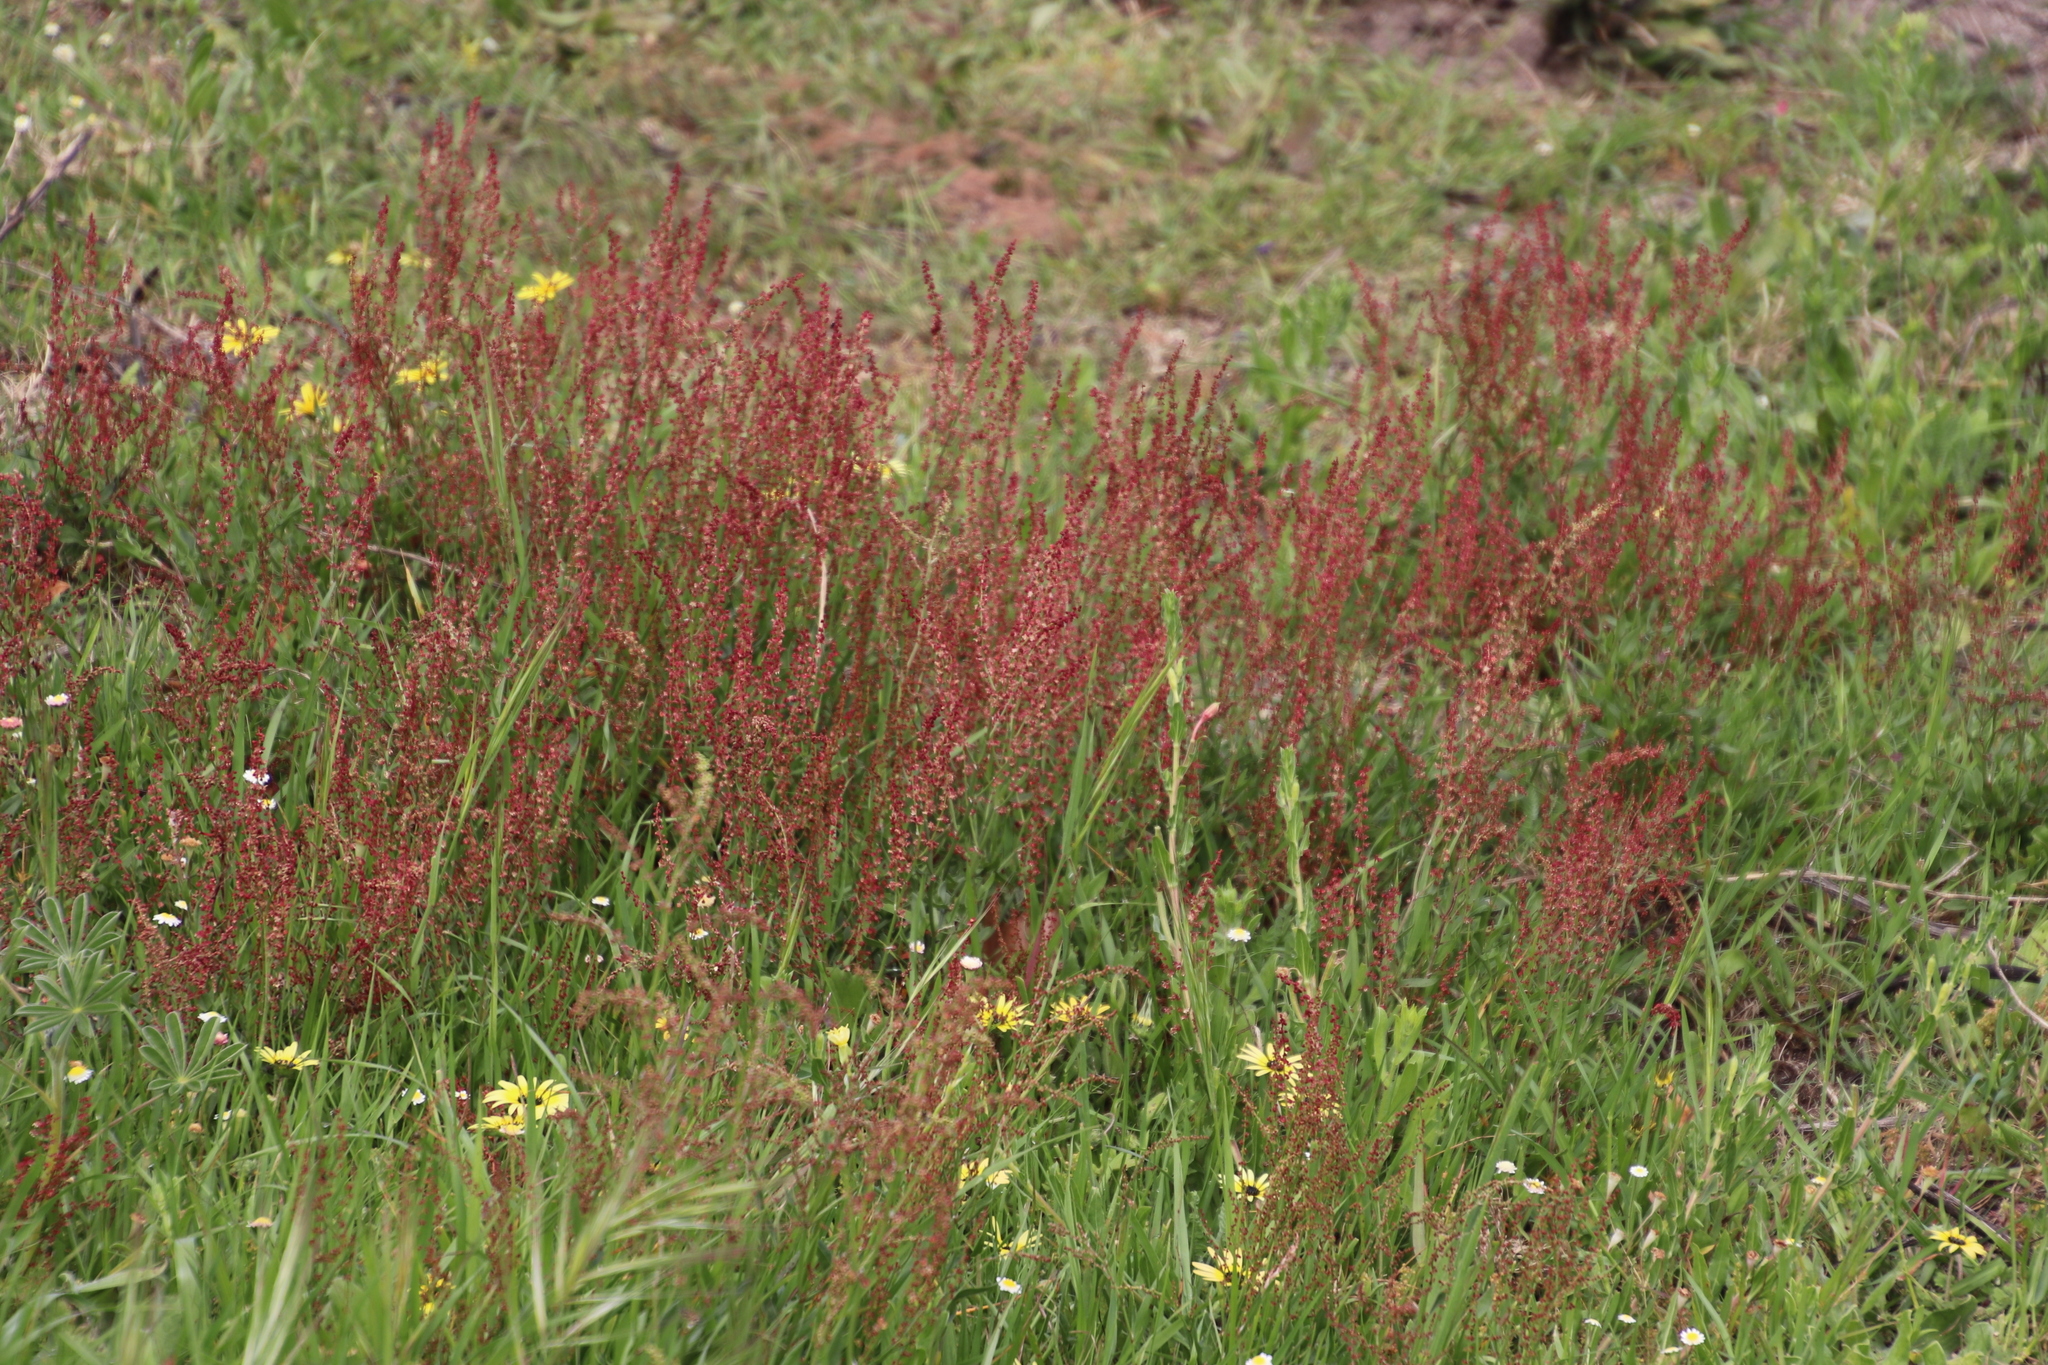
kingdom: Plantae
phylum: Tracheophyta
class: Magnoliopsida
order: Caryophyllales
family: Polygonaceae
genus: Rumex
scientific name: Rumex acetosella
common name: Common sheep sorrel
